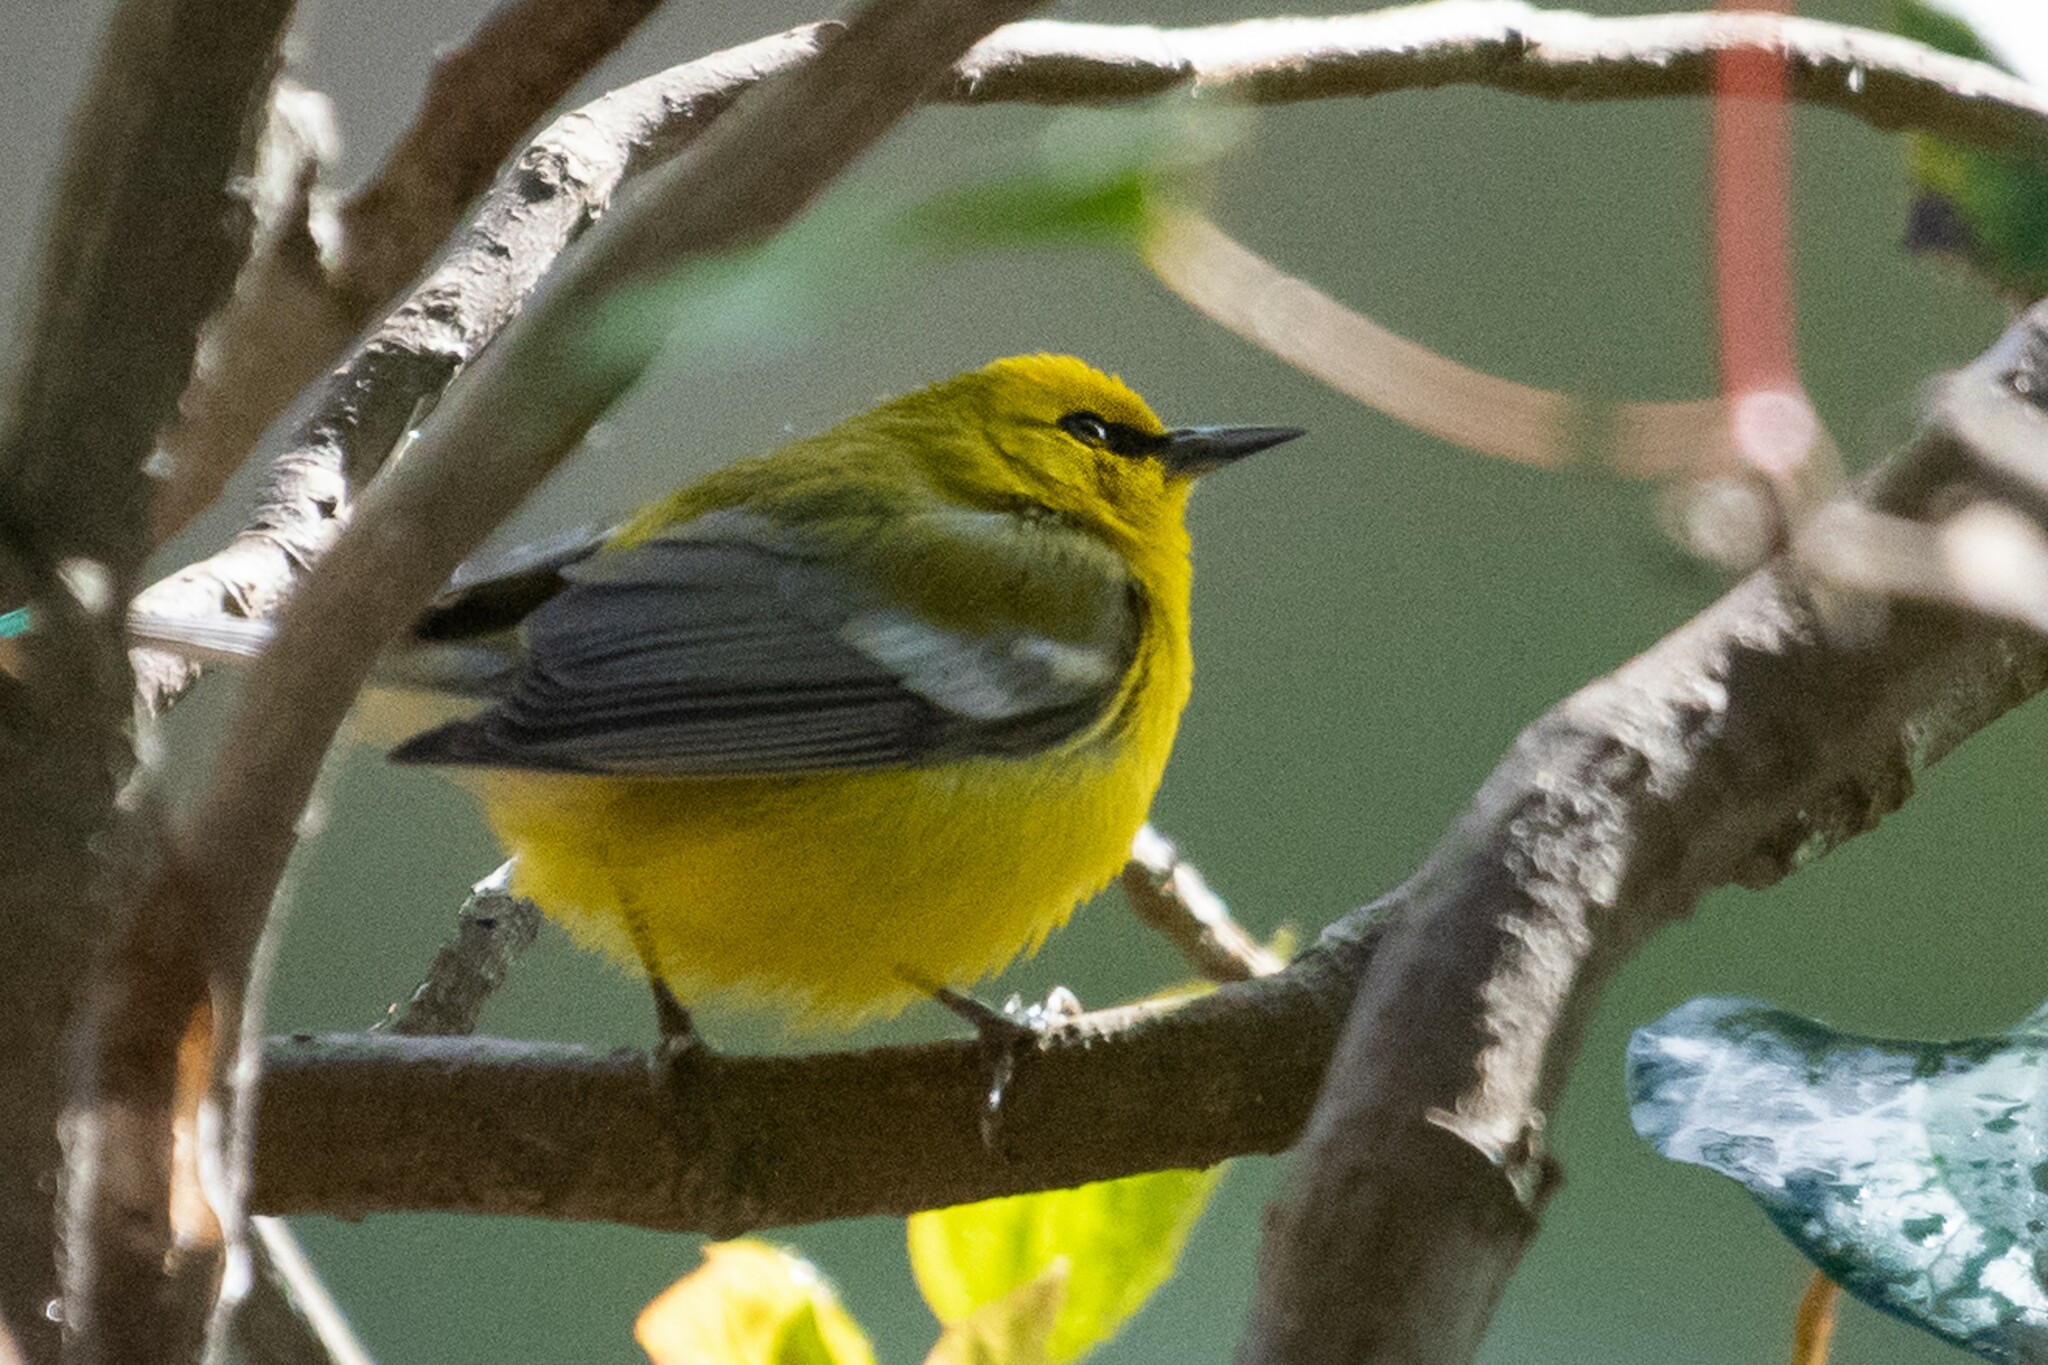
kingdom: Animalia
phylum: Chordata
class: Aves
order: Passeriformes
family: Parulidae
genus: Vermivora
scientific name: Vermivora cyanoptera
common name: Blue-winged warbler
